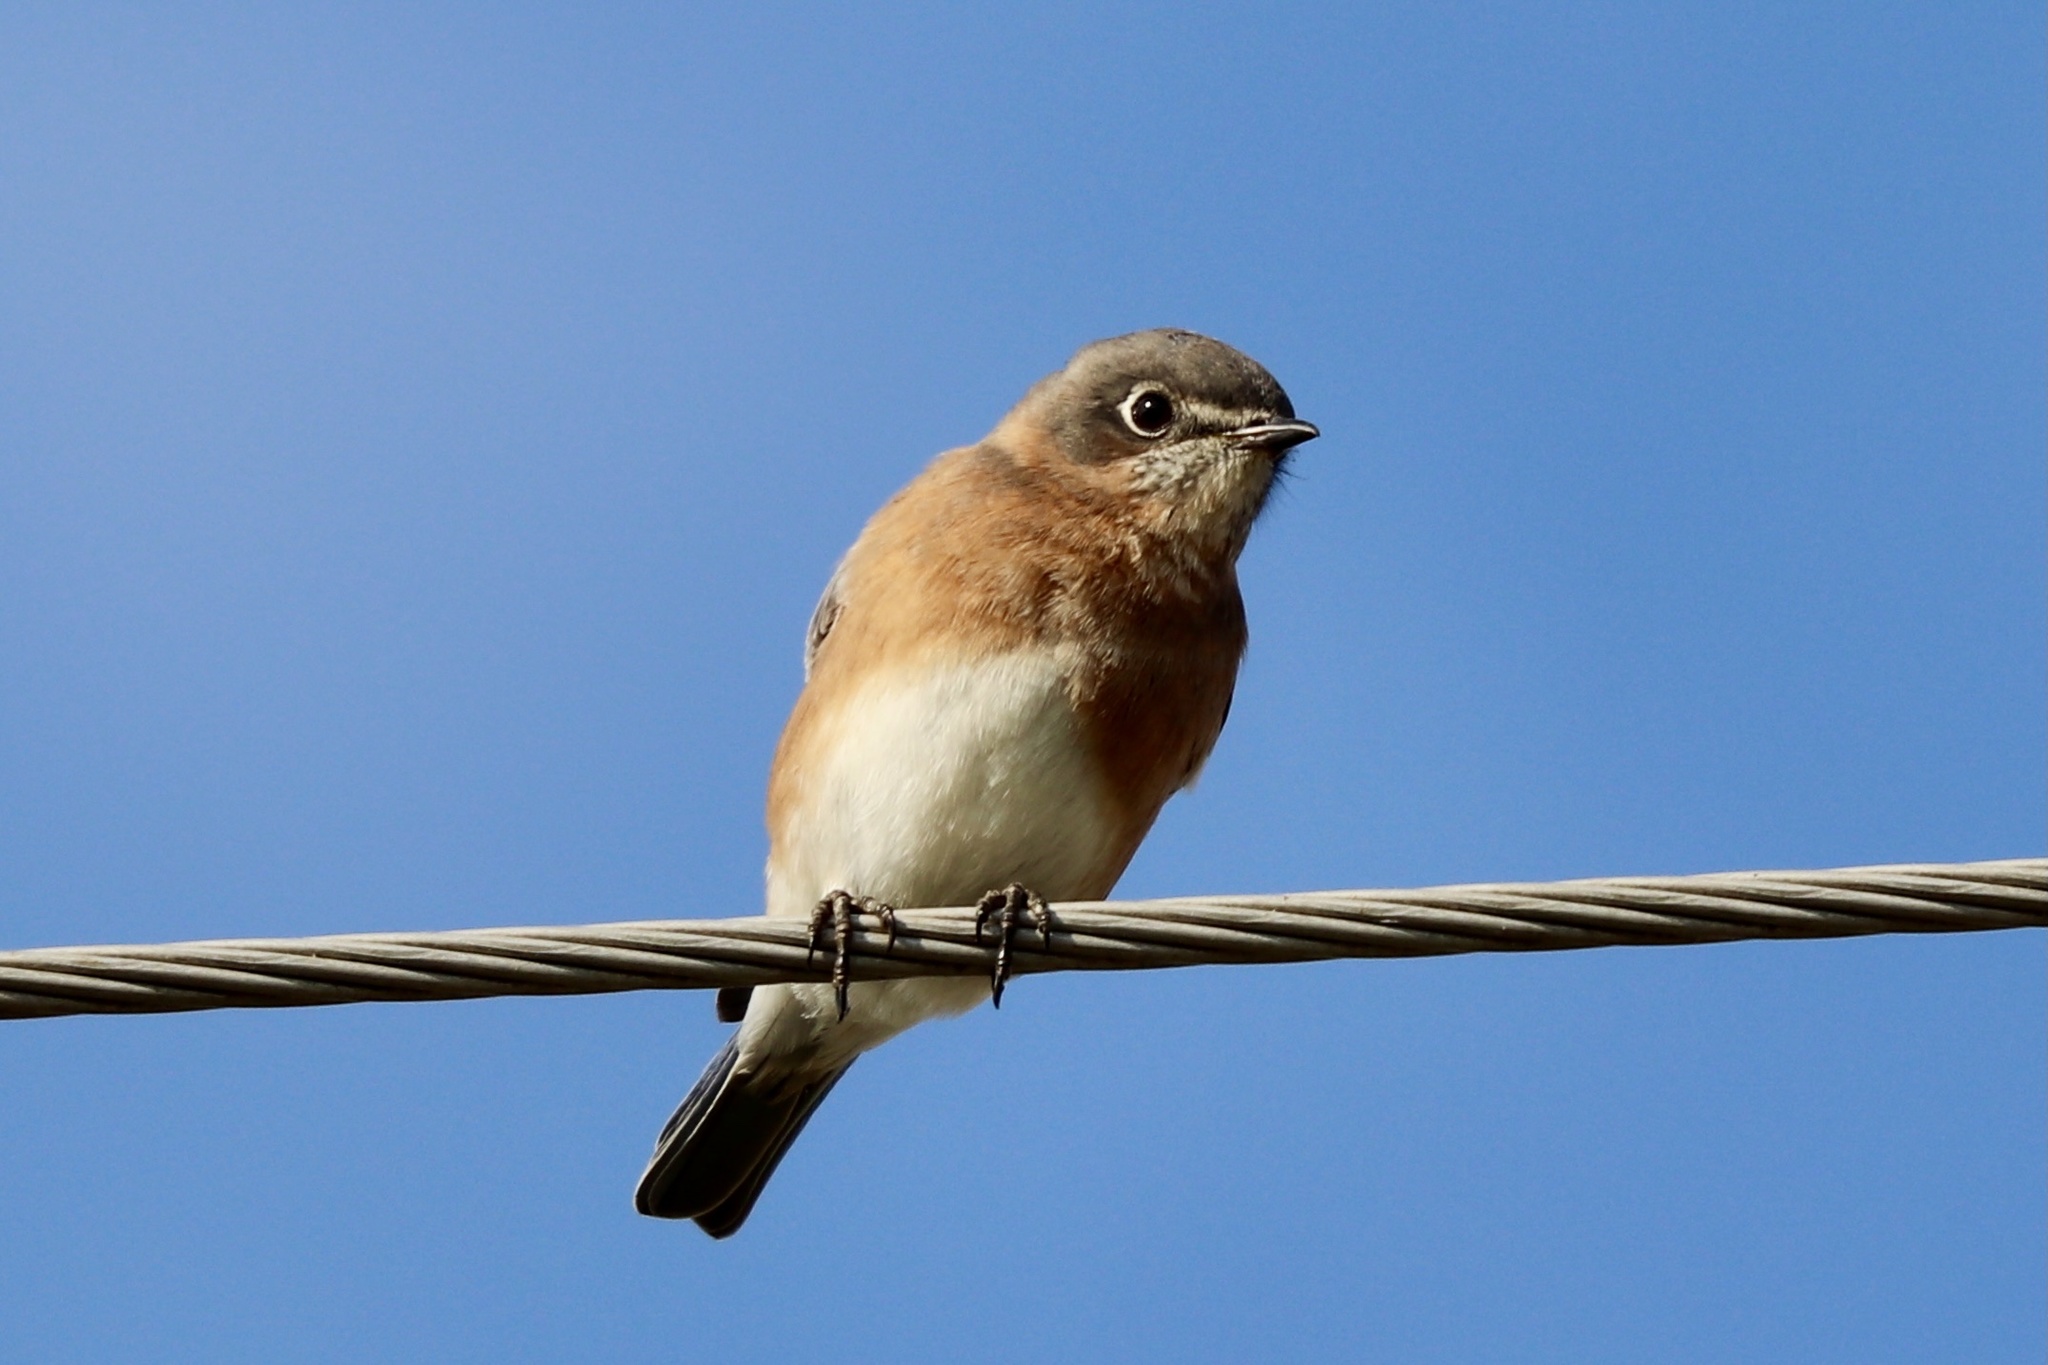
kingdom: Animalia
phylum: Chordata
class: Aves
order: Passeriformes
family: Turdidae
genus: Sialia
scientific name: Sialia sialis
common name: Eastern bluebird
